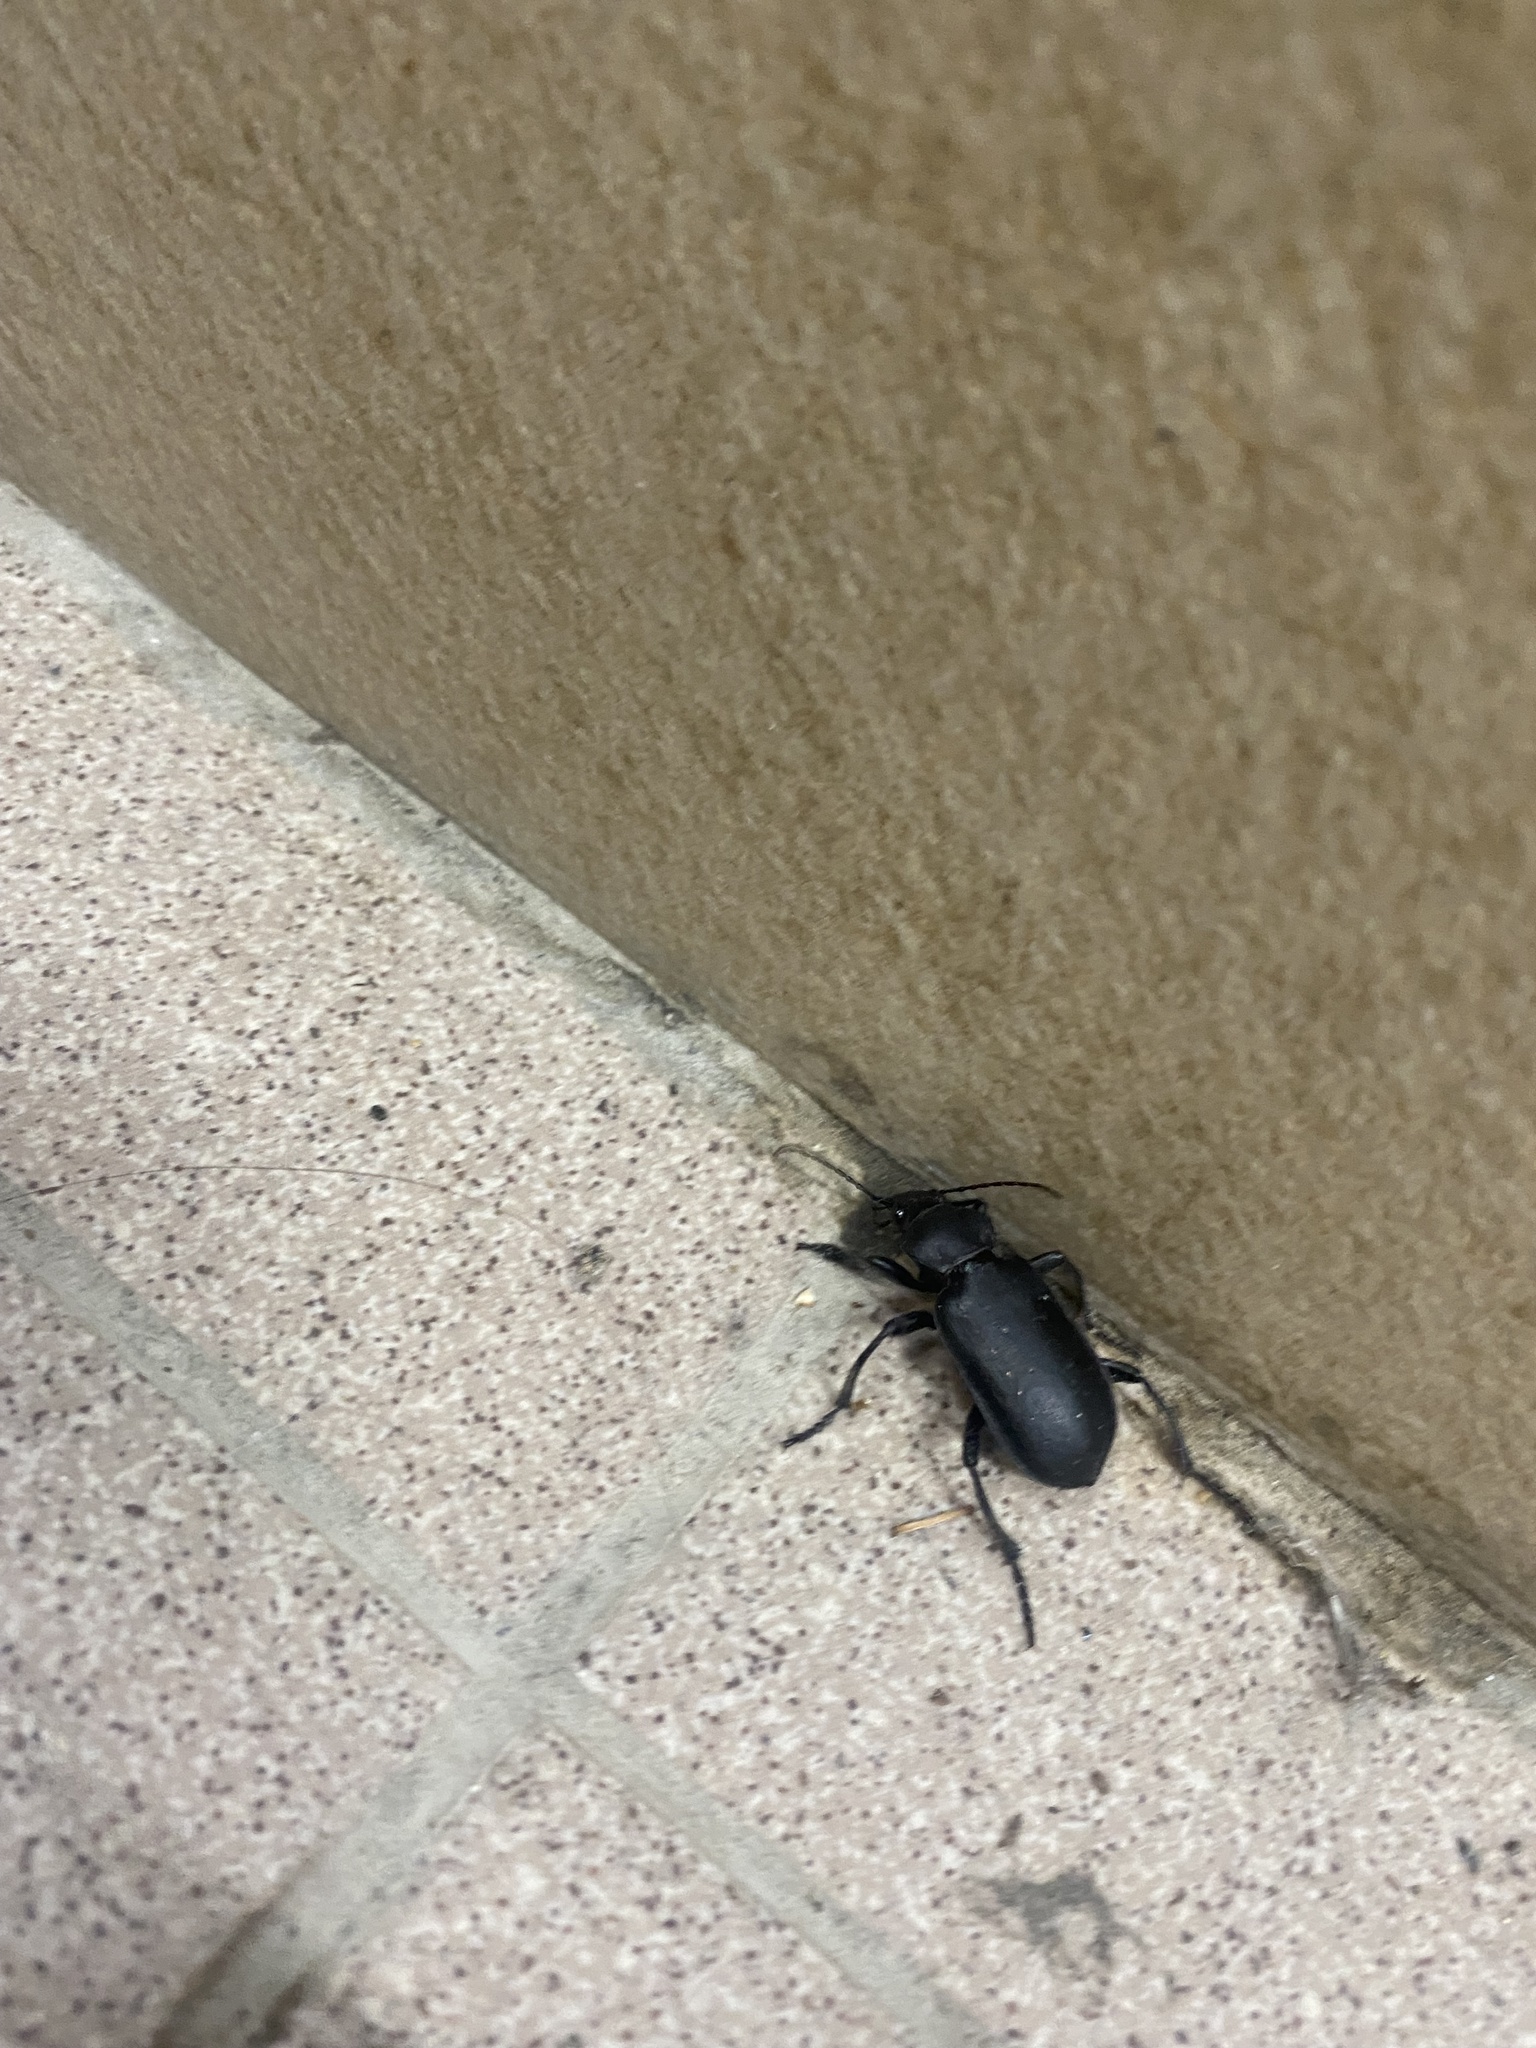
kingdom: Animalia
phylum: Arthropoda
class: Insecta
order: Coleoptera
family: Carabidae
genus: Calosoma
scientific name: Calosoma maderae
